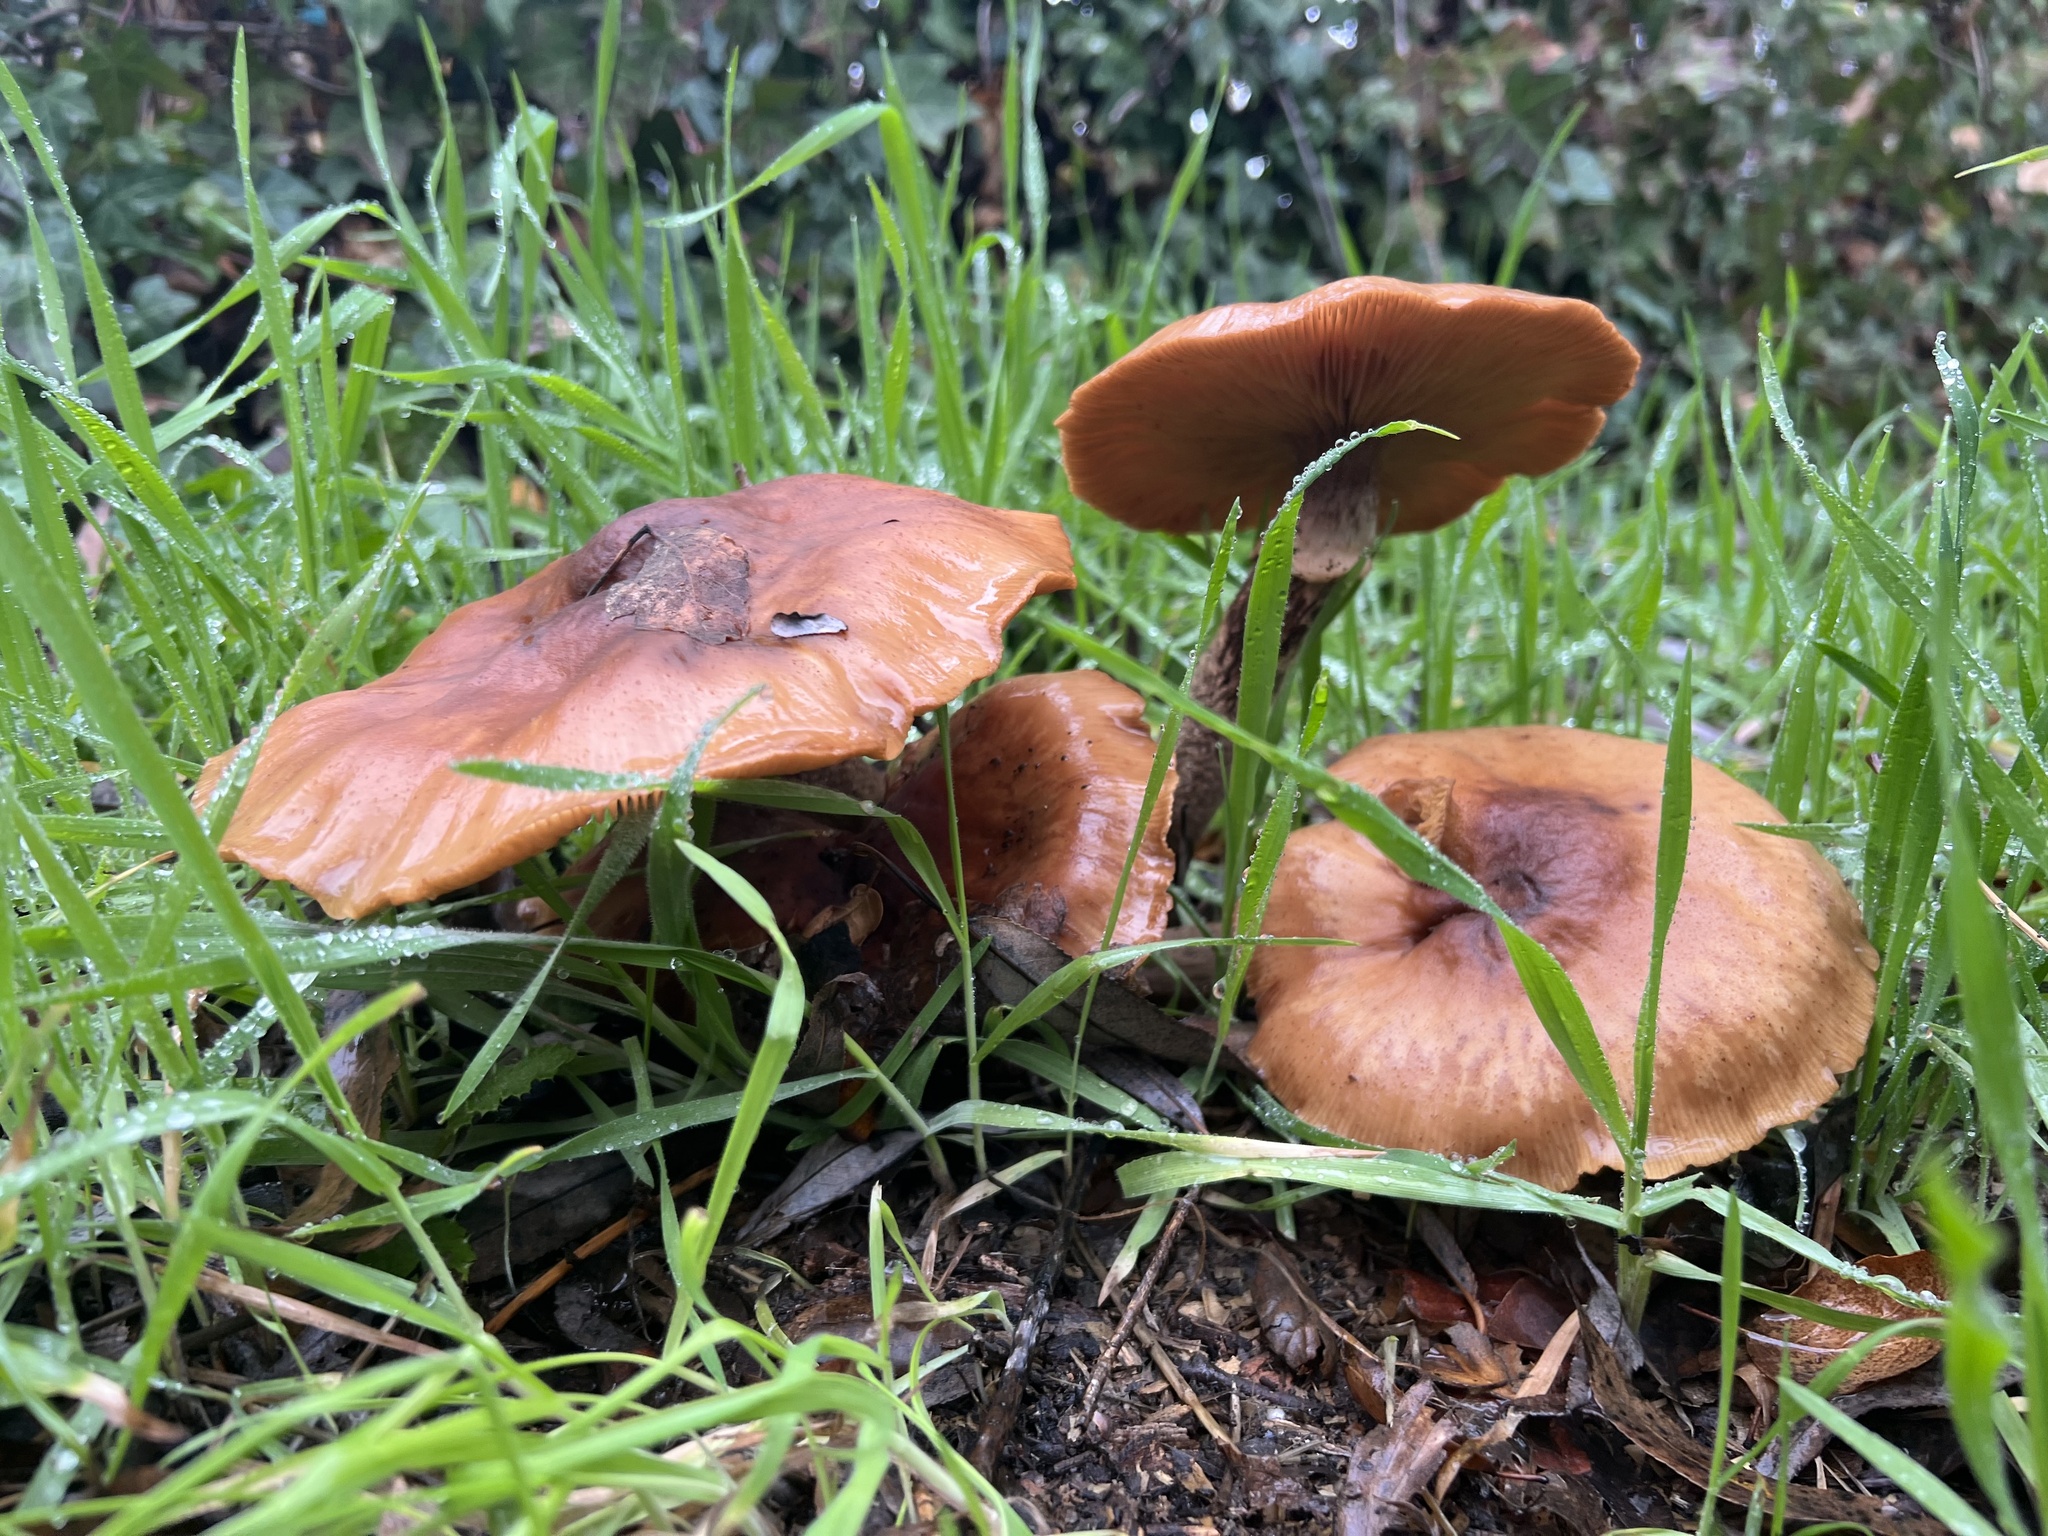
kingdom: Fungi
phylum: Basidiomycota
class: Agaricomycetes
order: Agaricales
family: Physalacriaceae
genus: Armillaria
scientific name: Armillaria mellea
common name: Honey fungus
